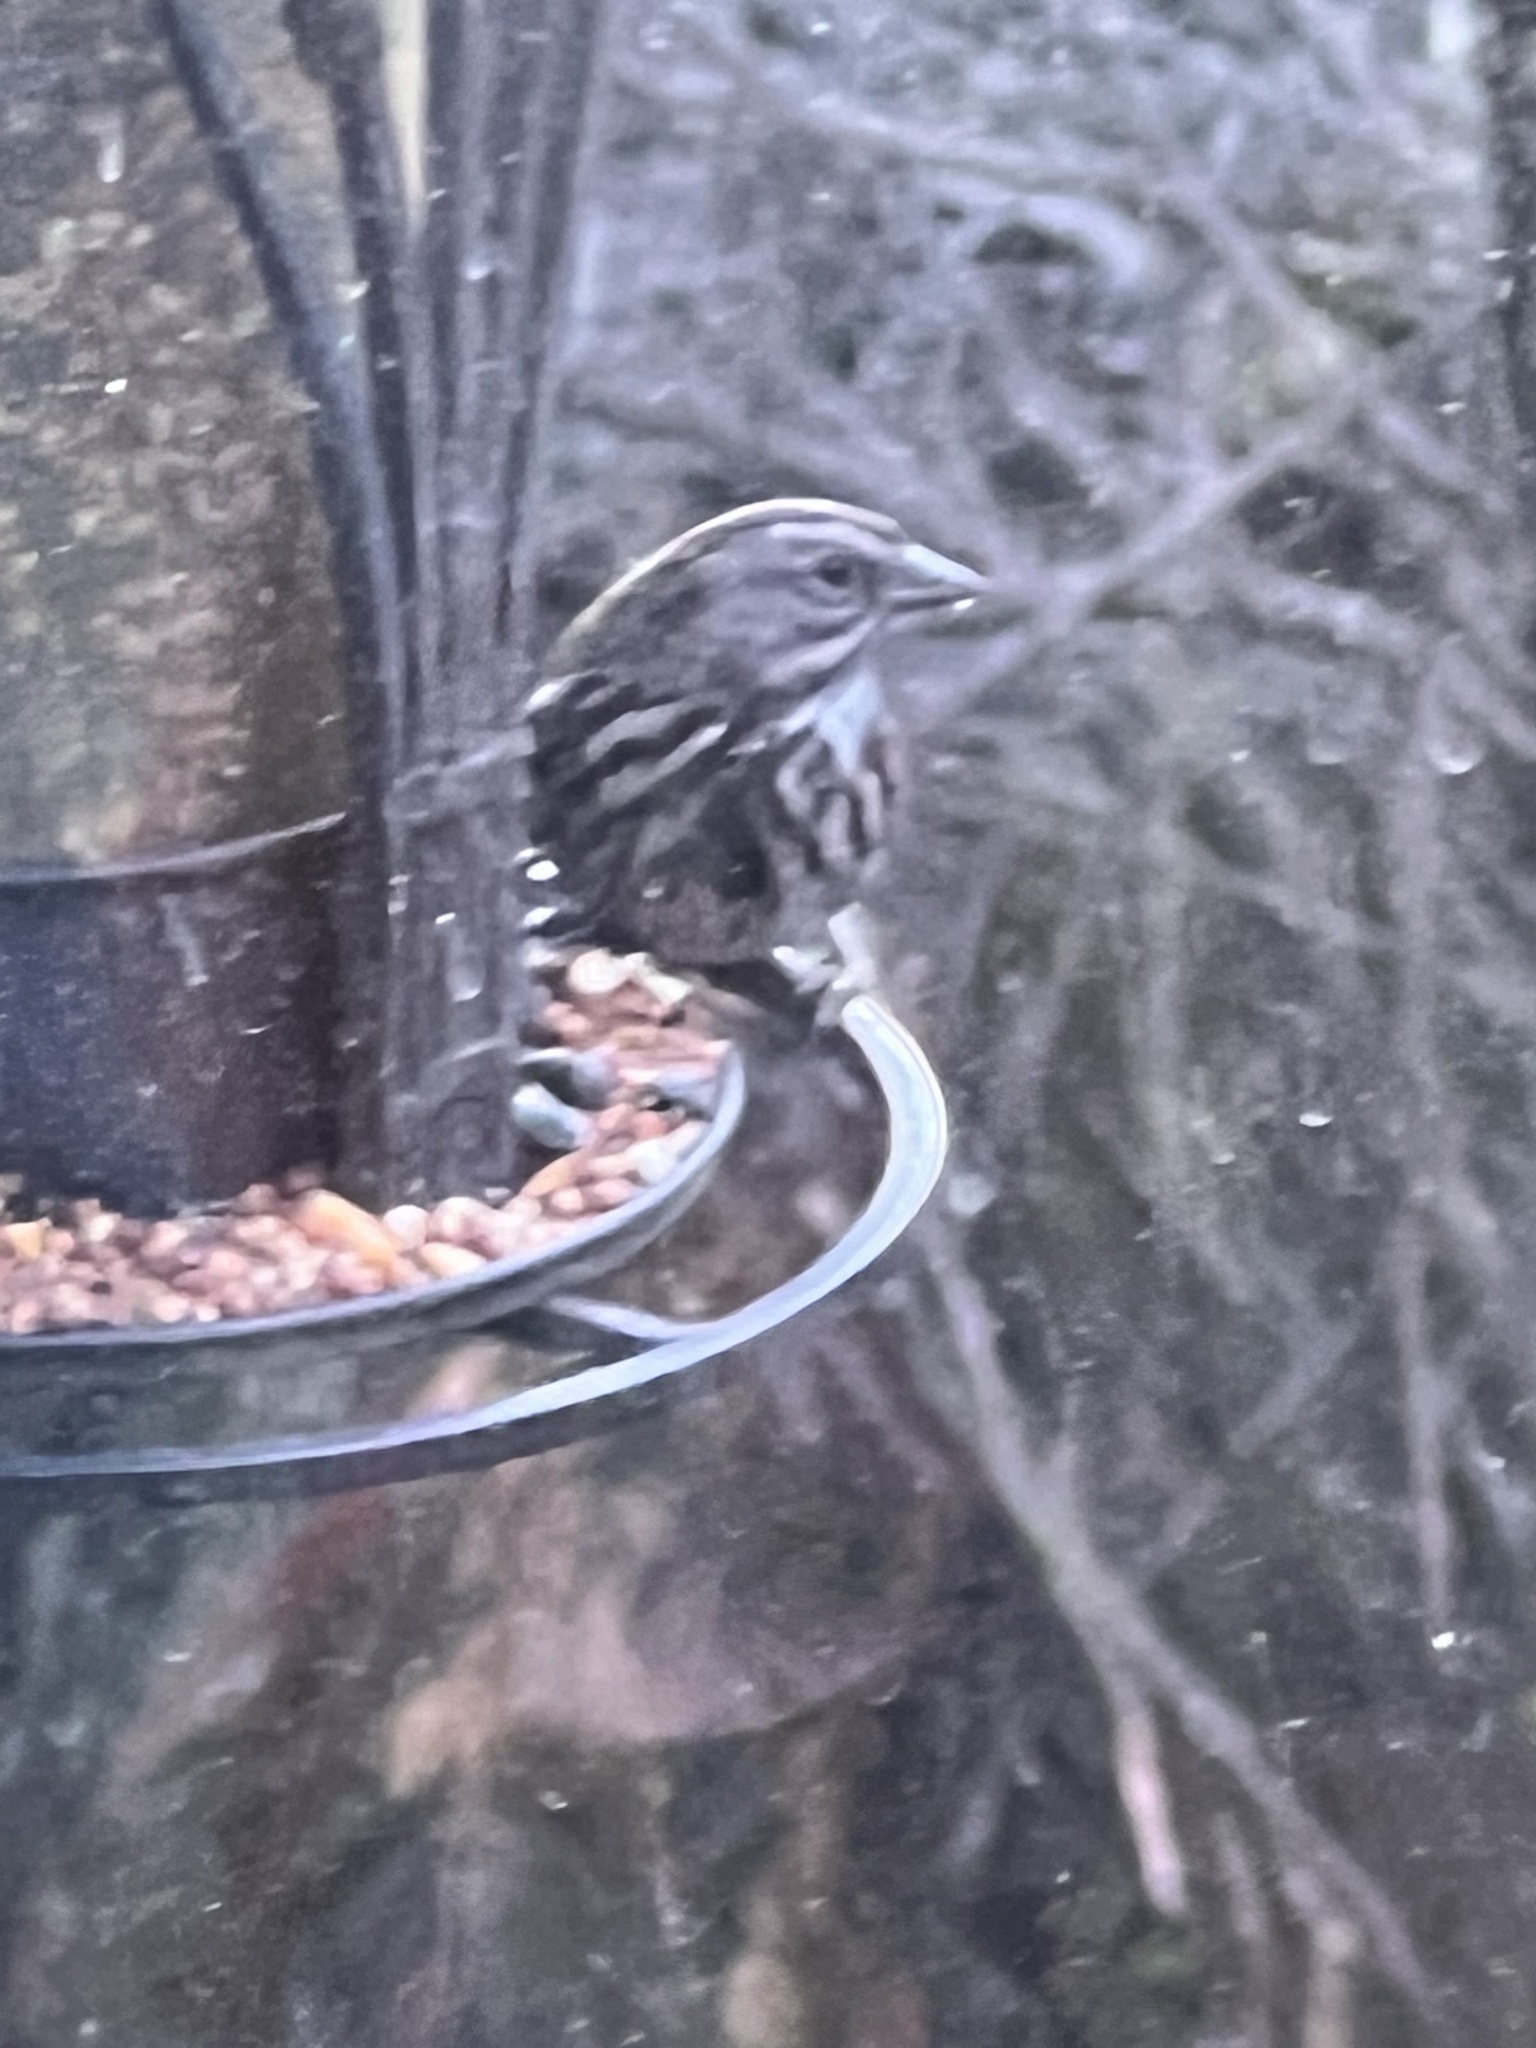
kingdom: Animalia
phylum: Chordata
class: Aves
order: Passeriformes
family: Passerellidae
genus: Melospiza
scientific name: Melospiza melodia
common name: Song sparrow
